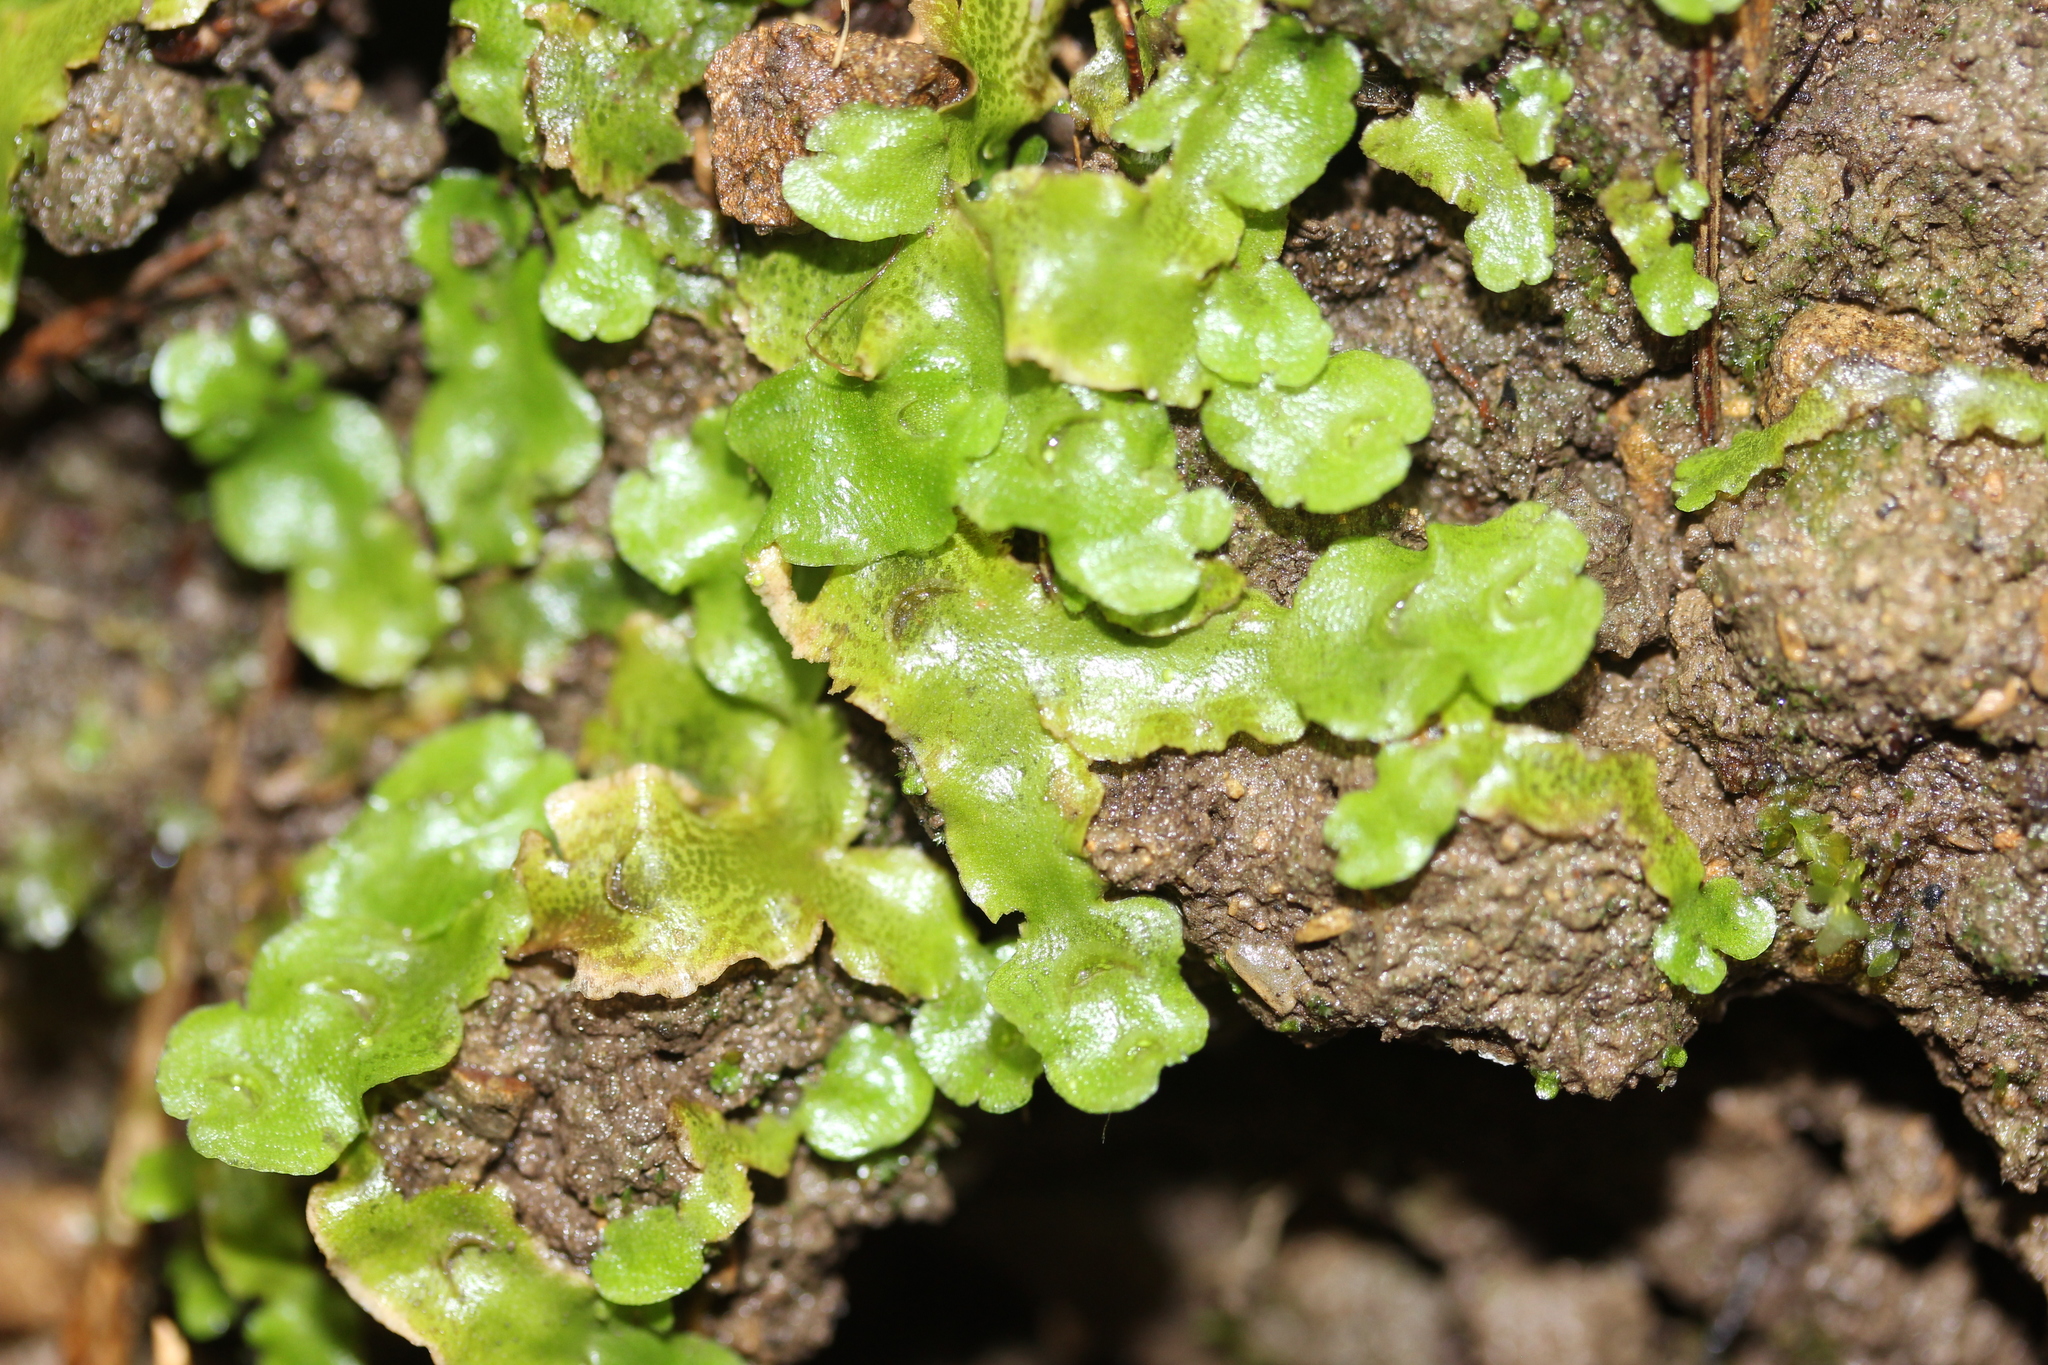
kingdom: Plantae
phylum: Marchantiophyta
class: Marchantiopsida
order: Lunulariales
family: Lunulariaceae
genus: Lunularia
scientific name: Lunularia cruciata
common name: Crescent-cup liverwort
